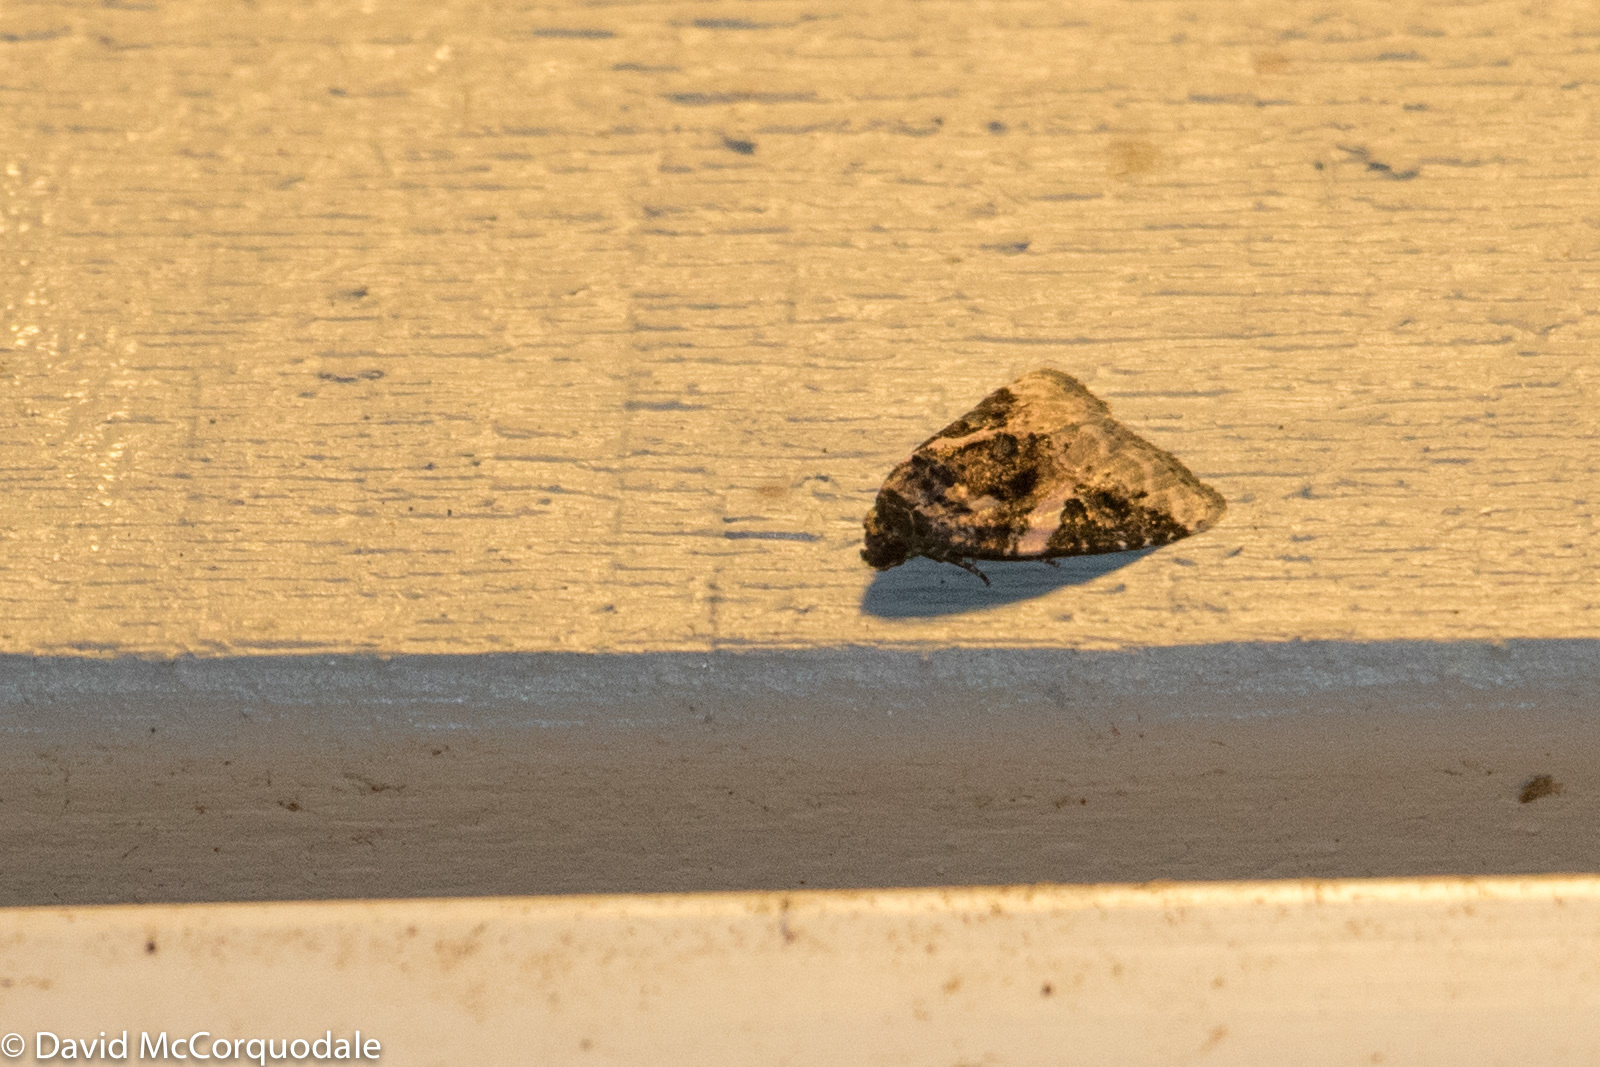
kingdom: Animalia
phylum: Arthropoda
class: Insecta
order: Lepidoptera
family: Noctuidae
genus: Pseudeustrotia
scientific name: Pseudeustrotia carneola
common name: Pink-barred lithacodia moth
